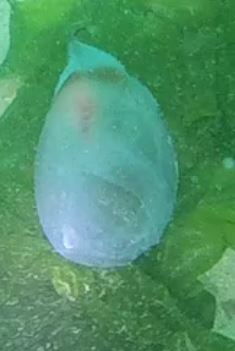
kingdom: Animalia
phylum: Chordata
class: Thaliacea
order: Salpida
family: Salpidae
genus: Thetys
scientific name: Thetys vagina
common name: Vagina salp
